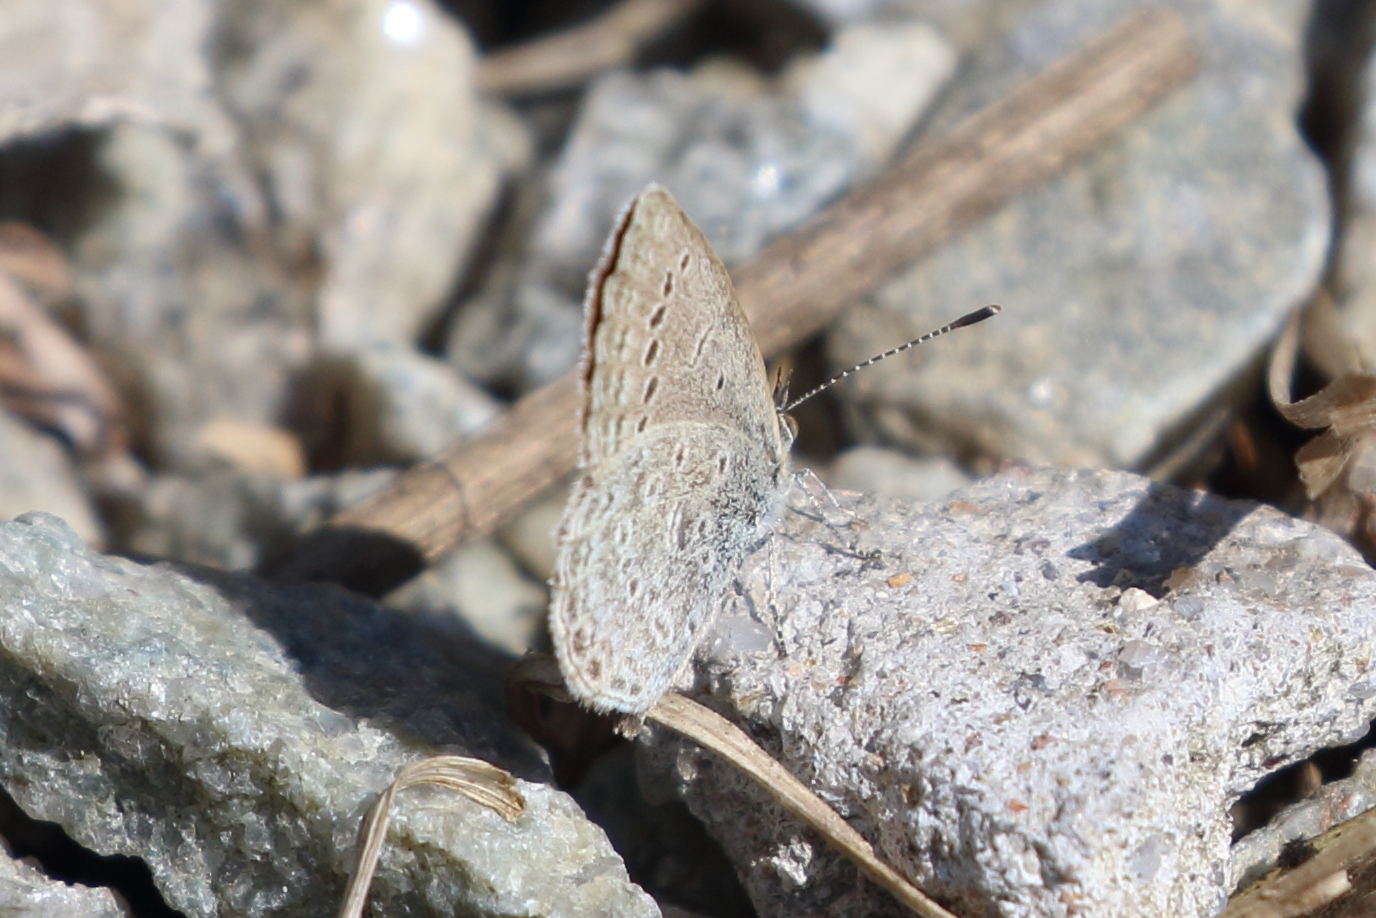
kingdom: Animalia
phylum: Arthropoda
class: Insecta
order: Lepidoptera
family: Lycaenidae
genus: Pseudozizeeria
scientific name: Pseudozizeeria maha
